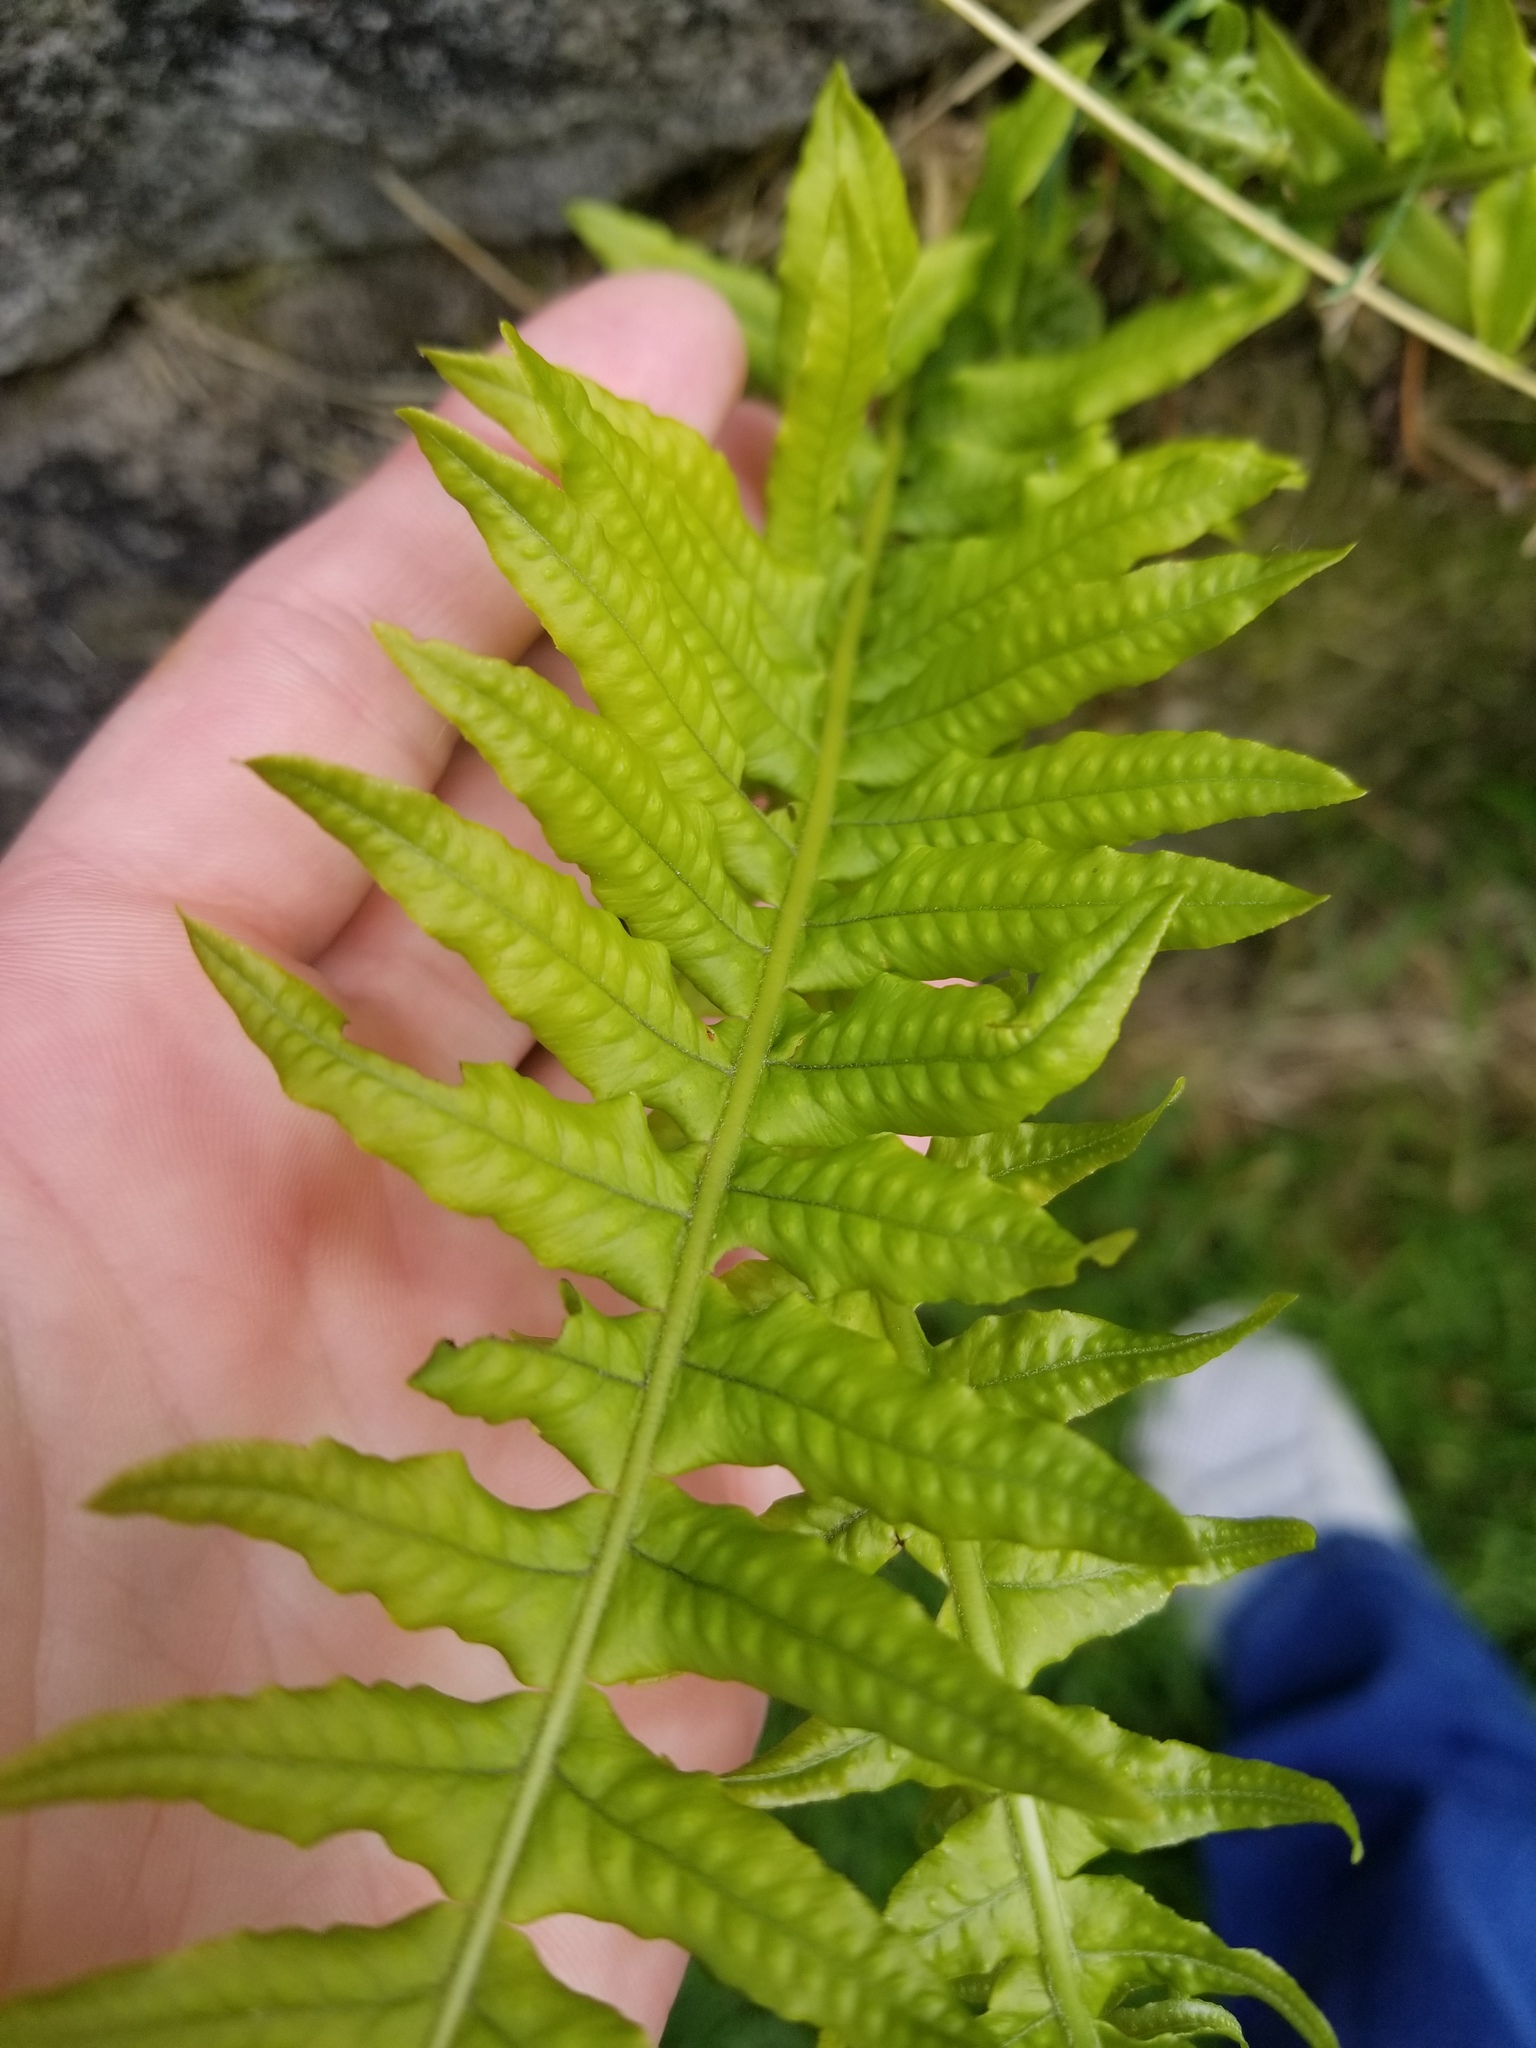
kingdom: Plantae
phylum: Tracheophyta
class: Polypodiopsida
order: Polypodiales
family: Polypodiaceae
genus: Polypodium
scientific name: Polypodium glycyrrhiza
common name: Licorice fern
